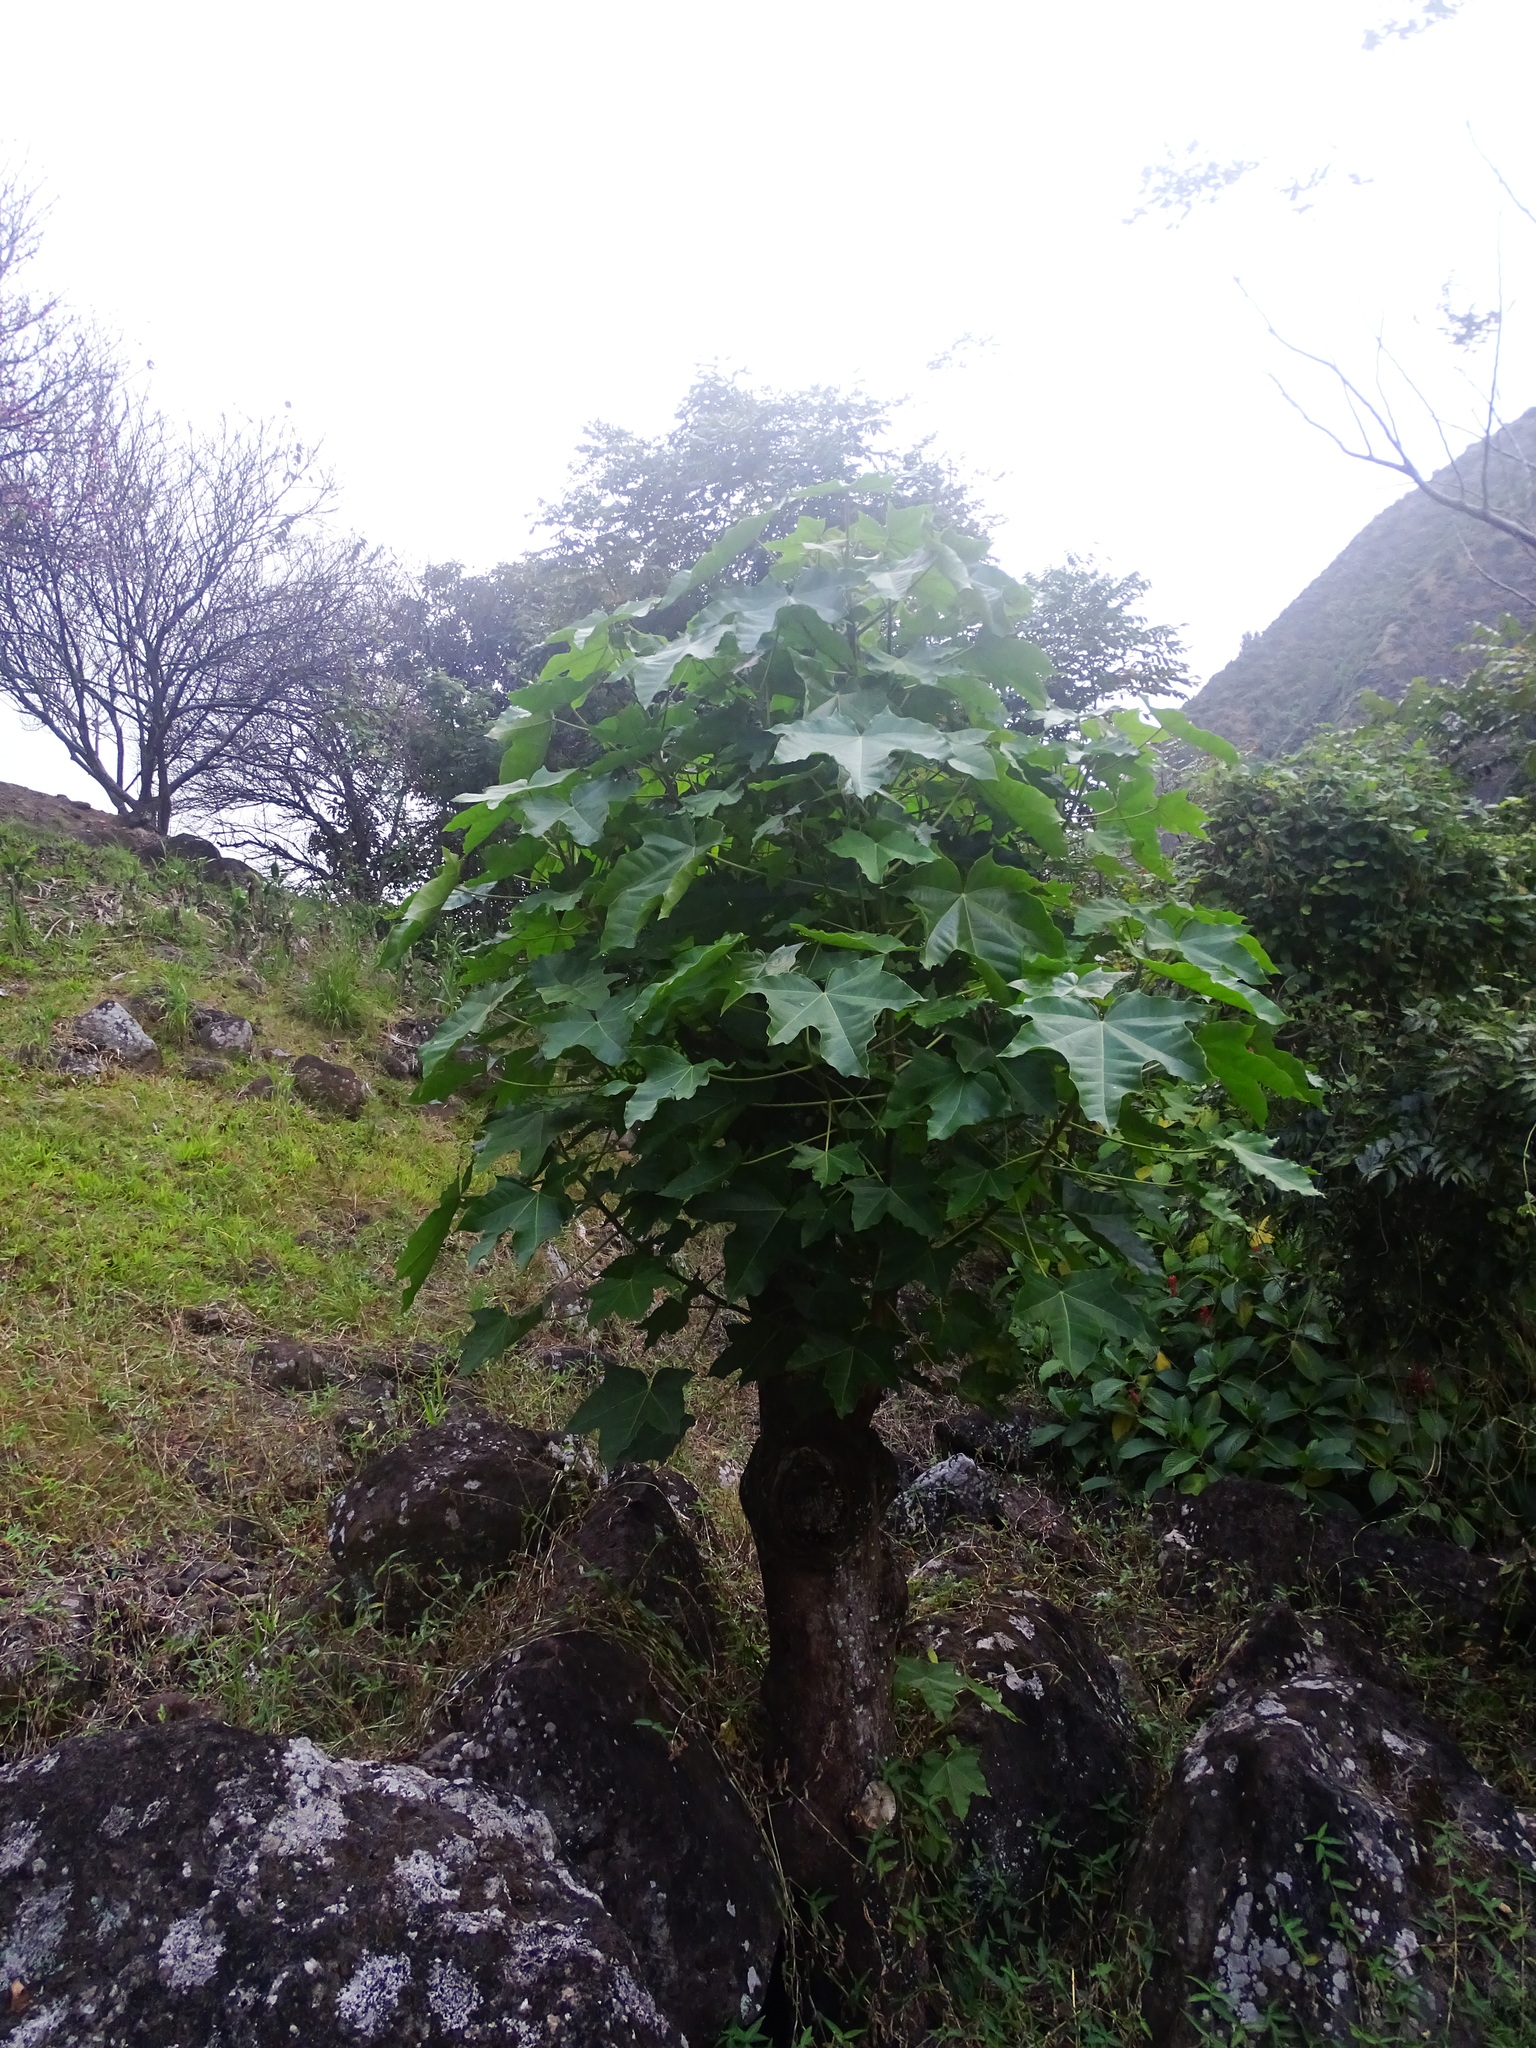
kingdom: Plantae
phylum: Tracheophyta
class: Magnoliopsida
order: Malpighiales
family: Euphorbiaceae
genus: Aleurites
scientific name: Aleurites moluccanus
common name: Candlenut tree
